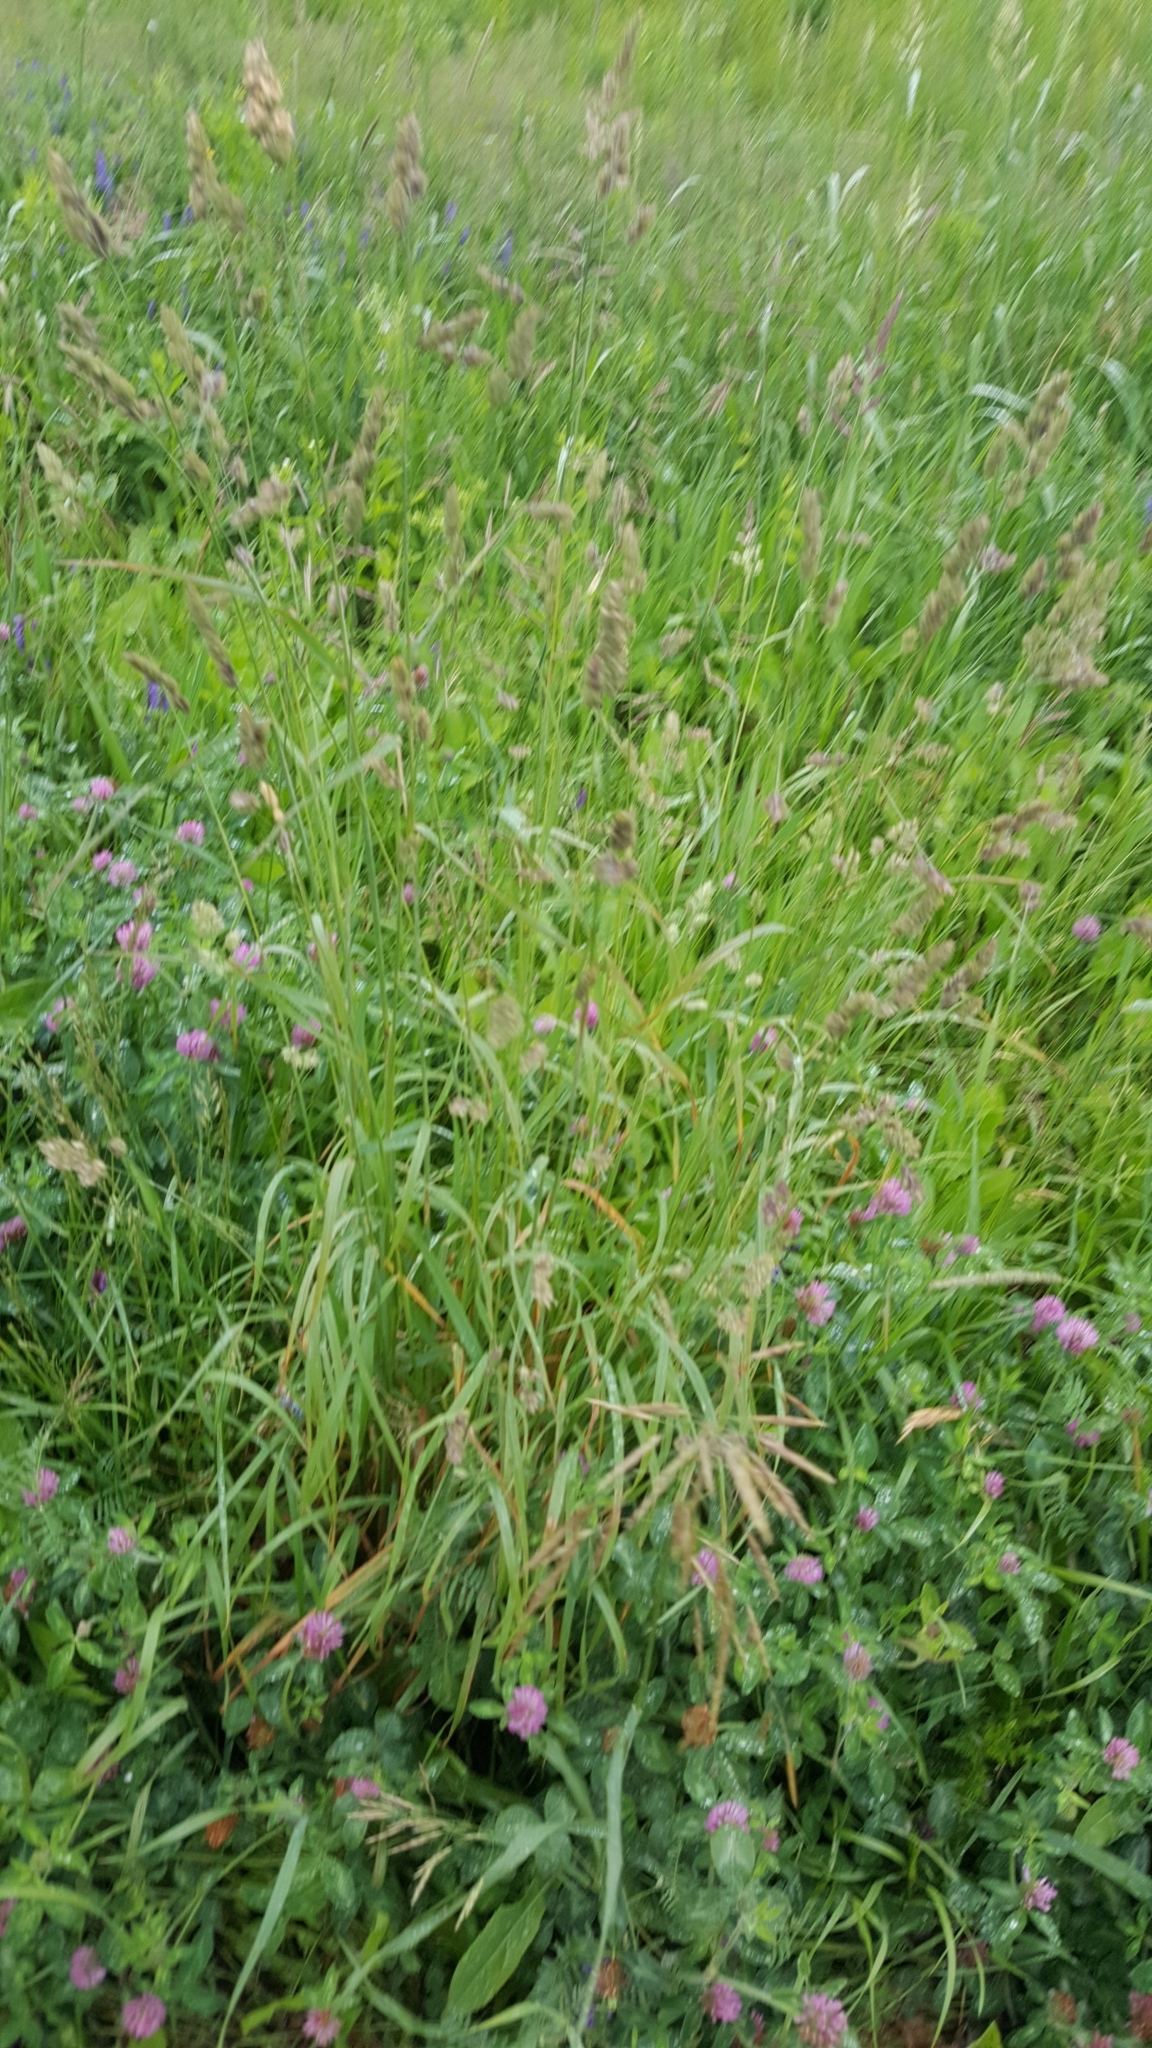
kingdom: Plantae
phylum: Tracheophyta
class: Liliopsida
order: Poales
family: Poaceae
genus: Dactylis
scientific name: Dactylis glomerata
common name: Orchardgrass
